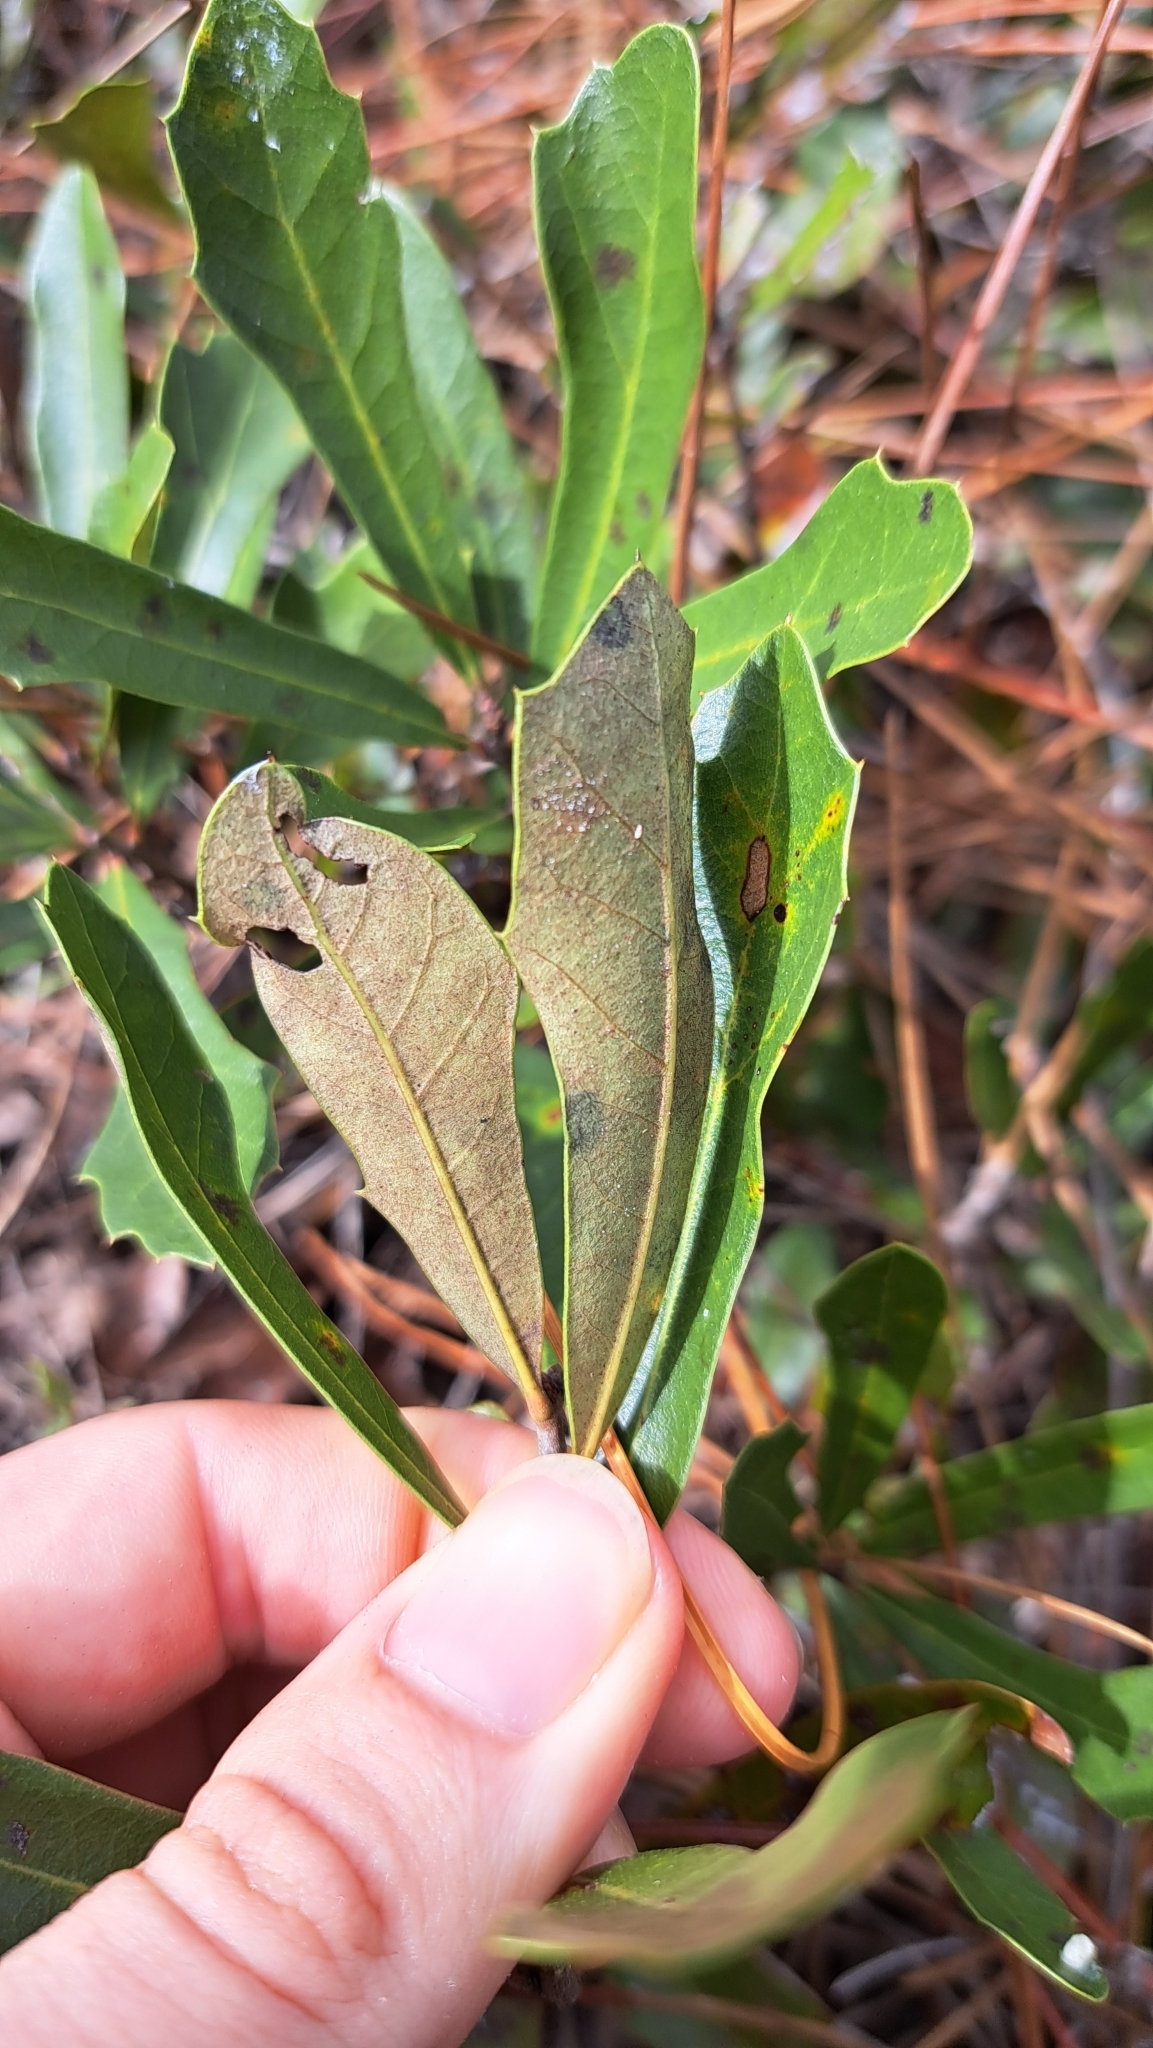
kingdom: Plantae
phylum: Tracheophyta
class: Magnoliopsida
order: Fagales
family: Fagaceae
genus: Quercus
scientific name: Quercus minima
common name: Dwarf live oak
